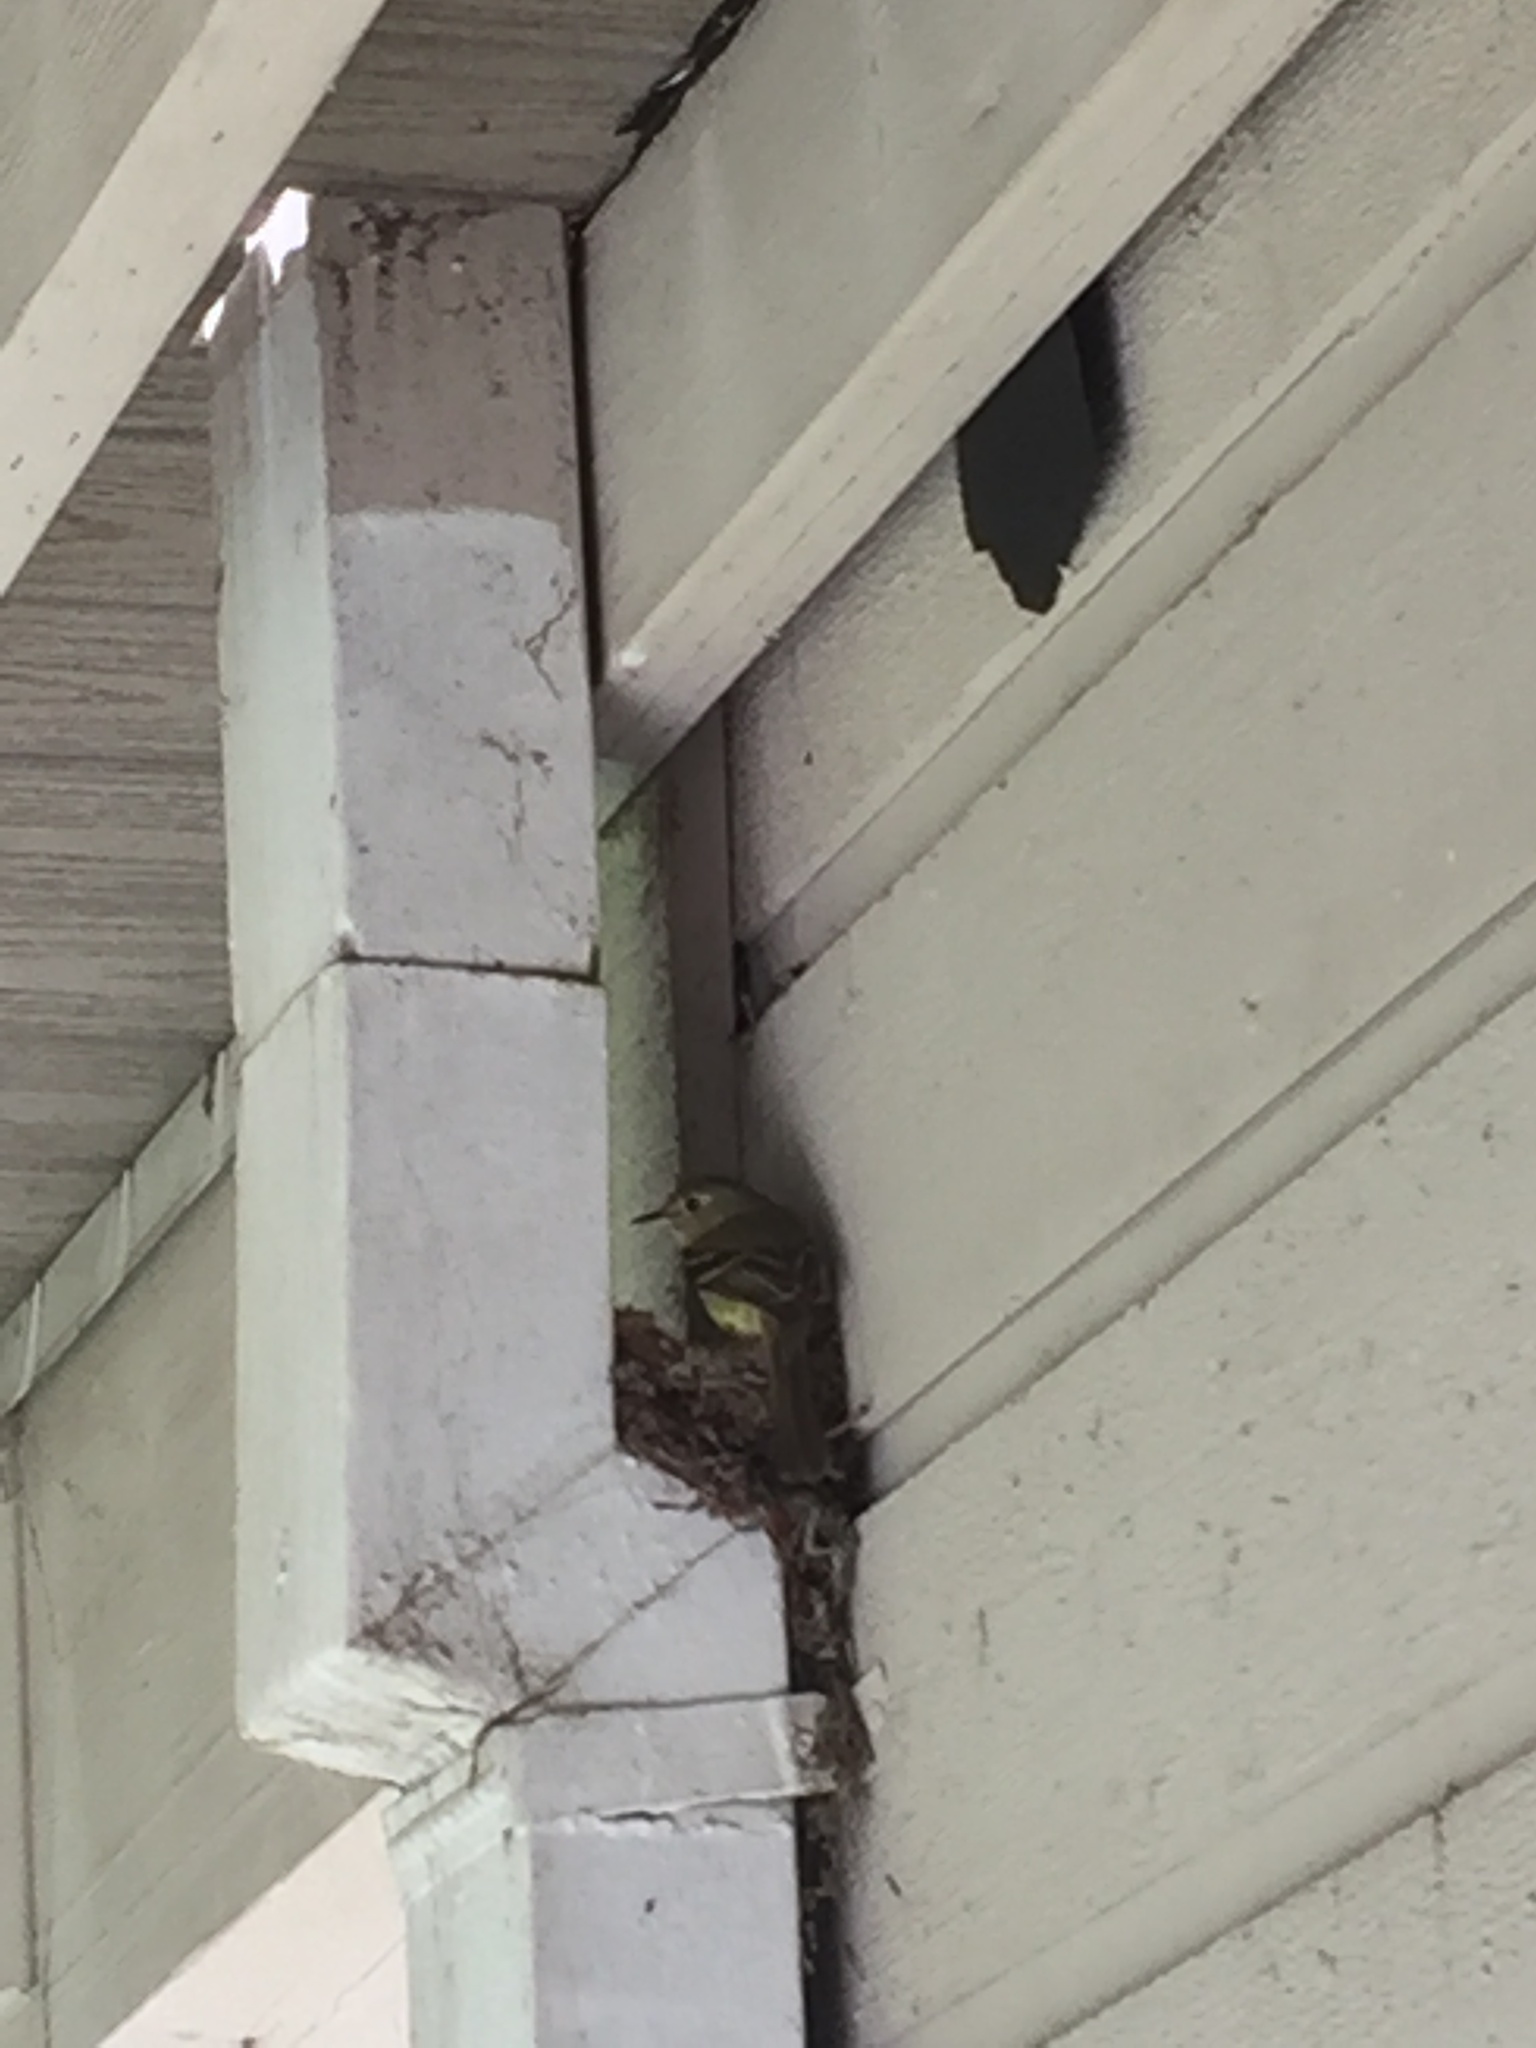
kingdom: Animalia
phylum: Chordata
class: Aves
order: Passeriformes
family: Tyrannidae
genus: Empidonax
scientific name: Empidonax difficilis
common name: Pacific-slope flycatcher
